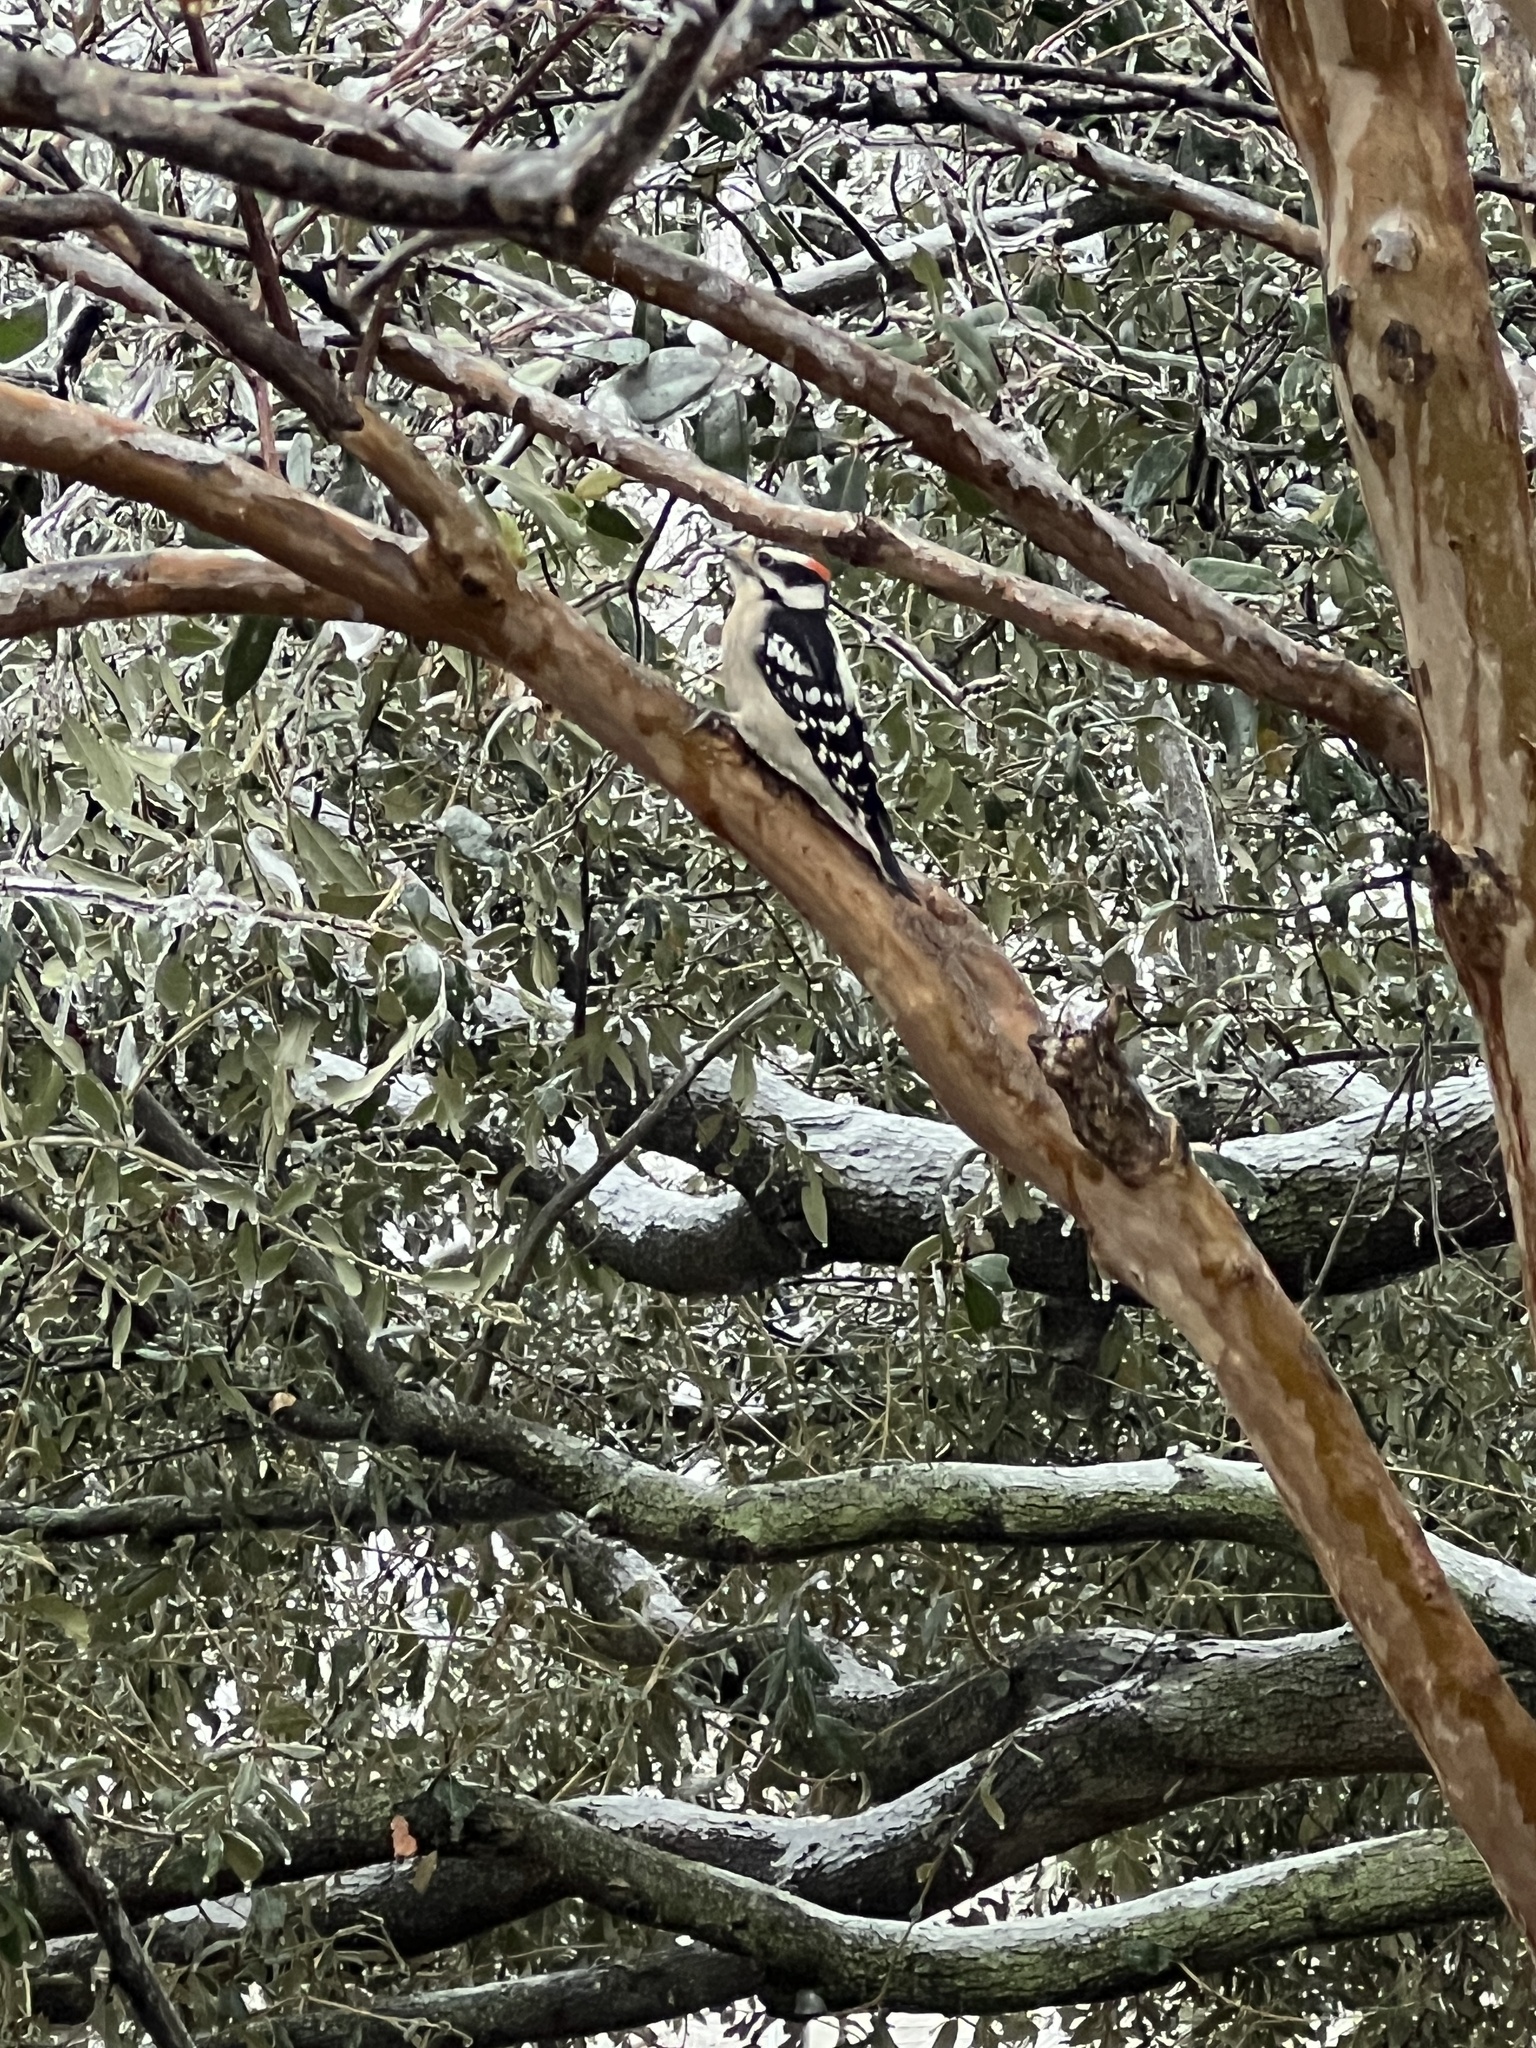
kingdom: Animalia
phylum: Chordata
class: Aves
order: Piciformes
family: Picidae
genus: Dryobates
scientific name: Dryobates pubescens
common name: Downy woodpecker
